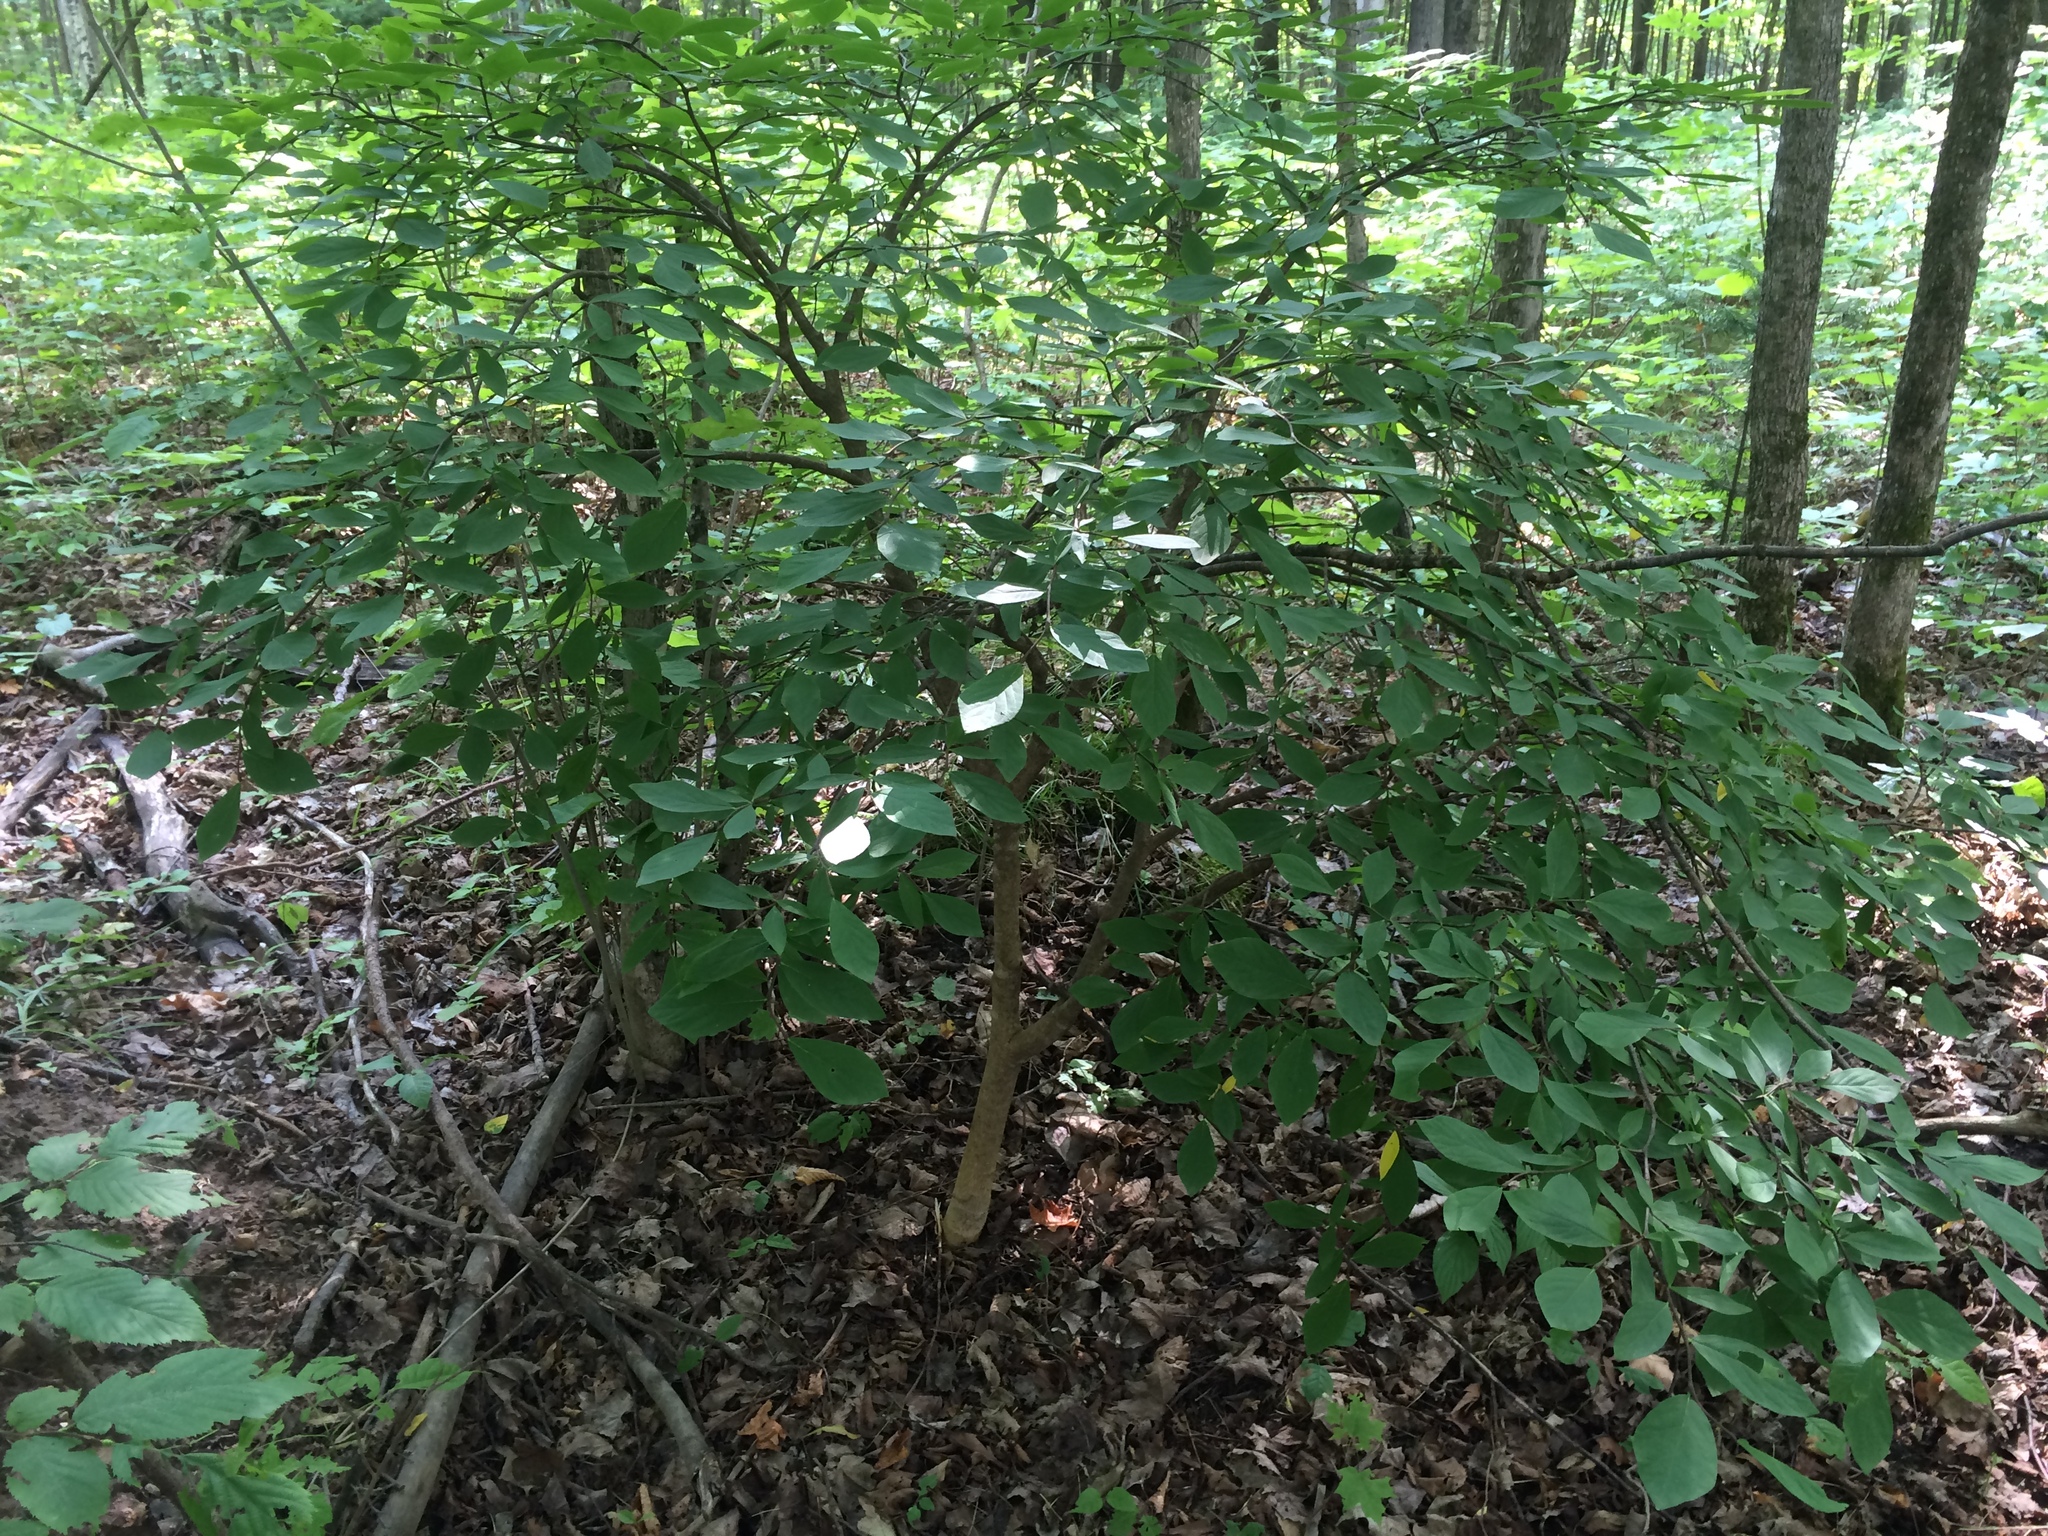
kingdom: Plantae
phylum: Tracheophyta
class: Magnoliopsida
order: Malvales
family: Thymelaeaceae
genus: Dirca
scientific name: Dirca palustris
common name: Leatherwood
